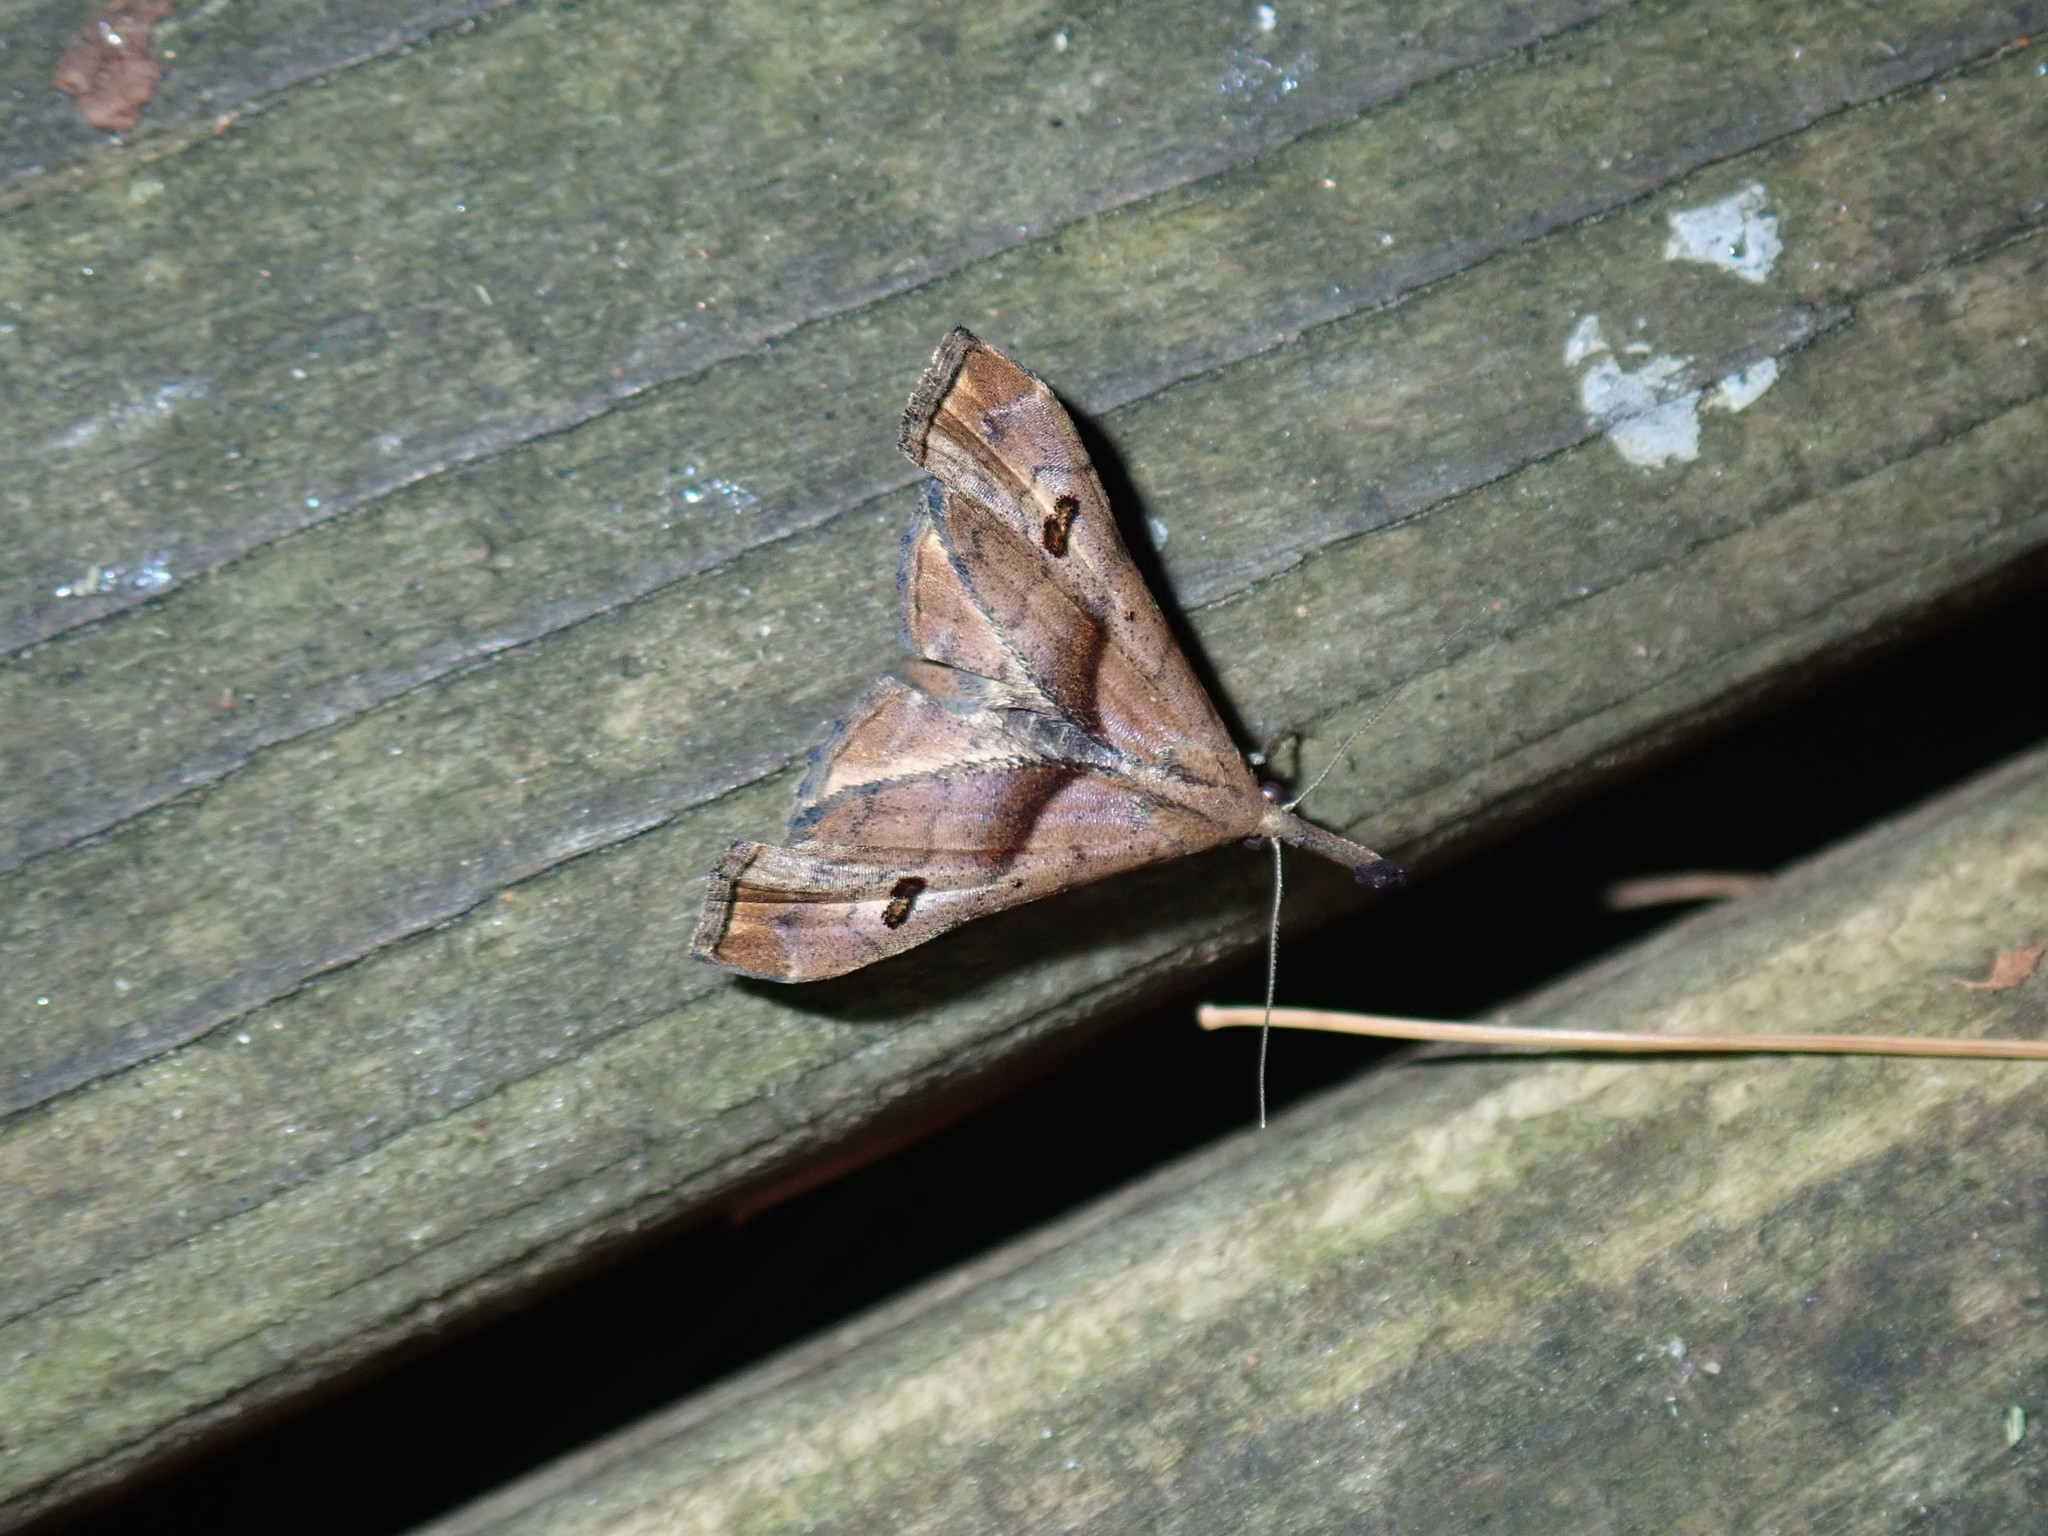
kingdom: Animalia
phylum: Arthropoda
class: Insecta
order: Lepidoptera
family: Erebidae
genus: Palthis
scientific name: Palthis angulalis
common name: Dark-spotted palthis moth
